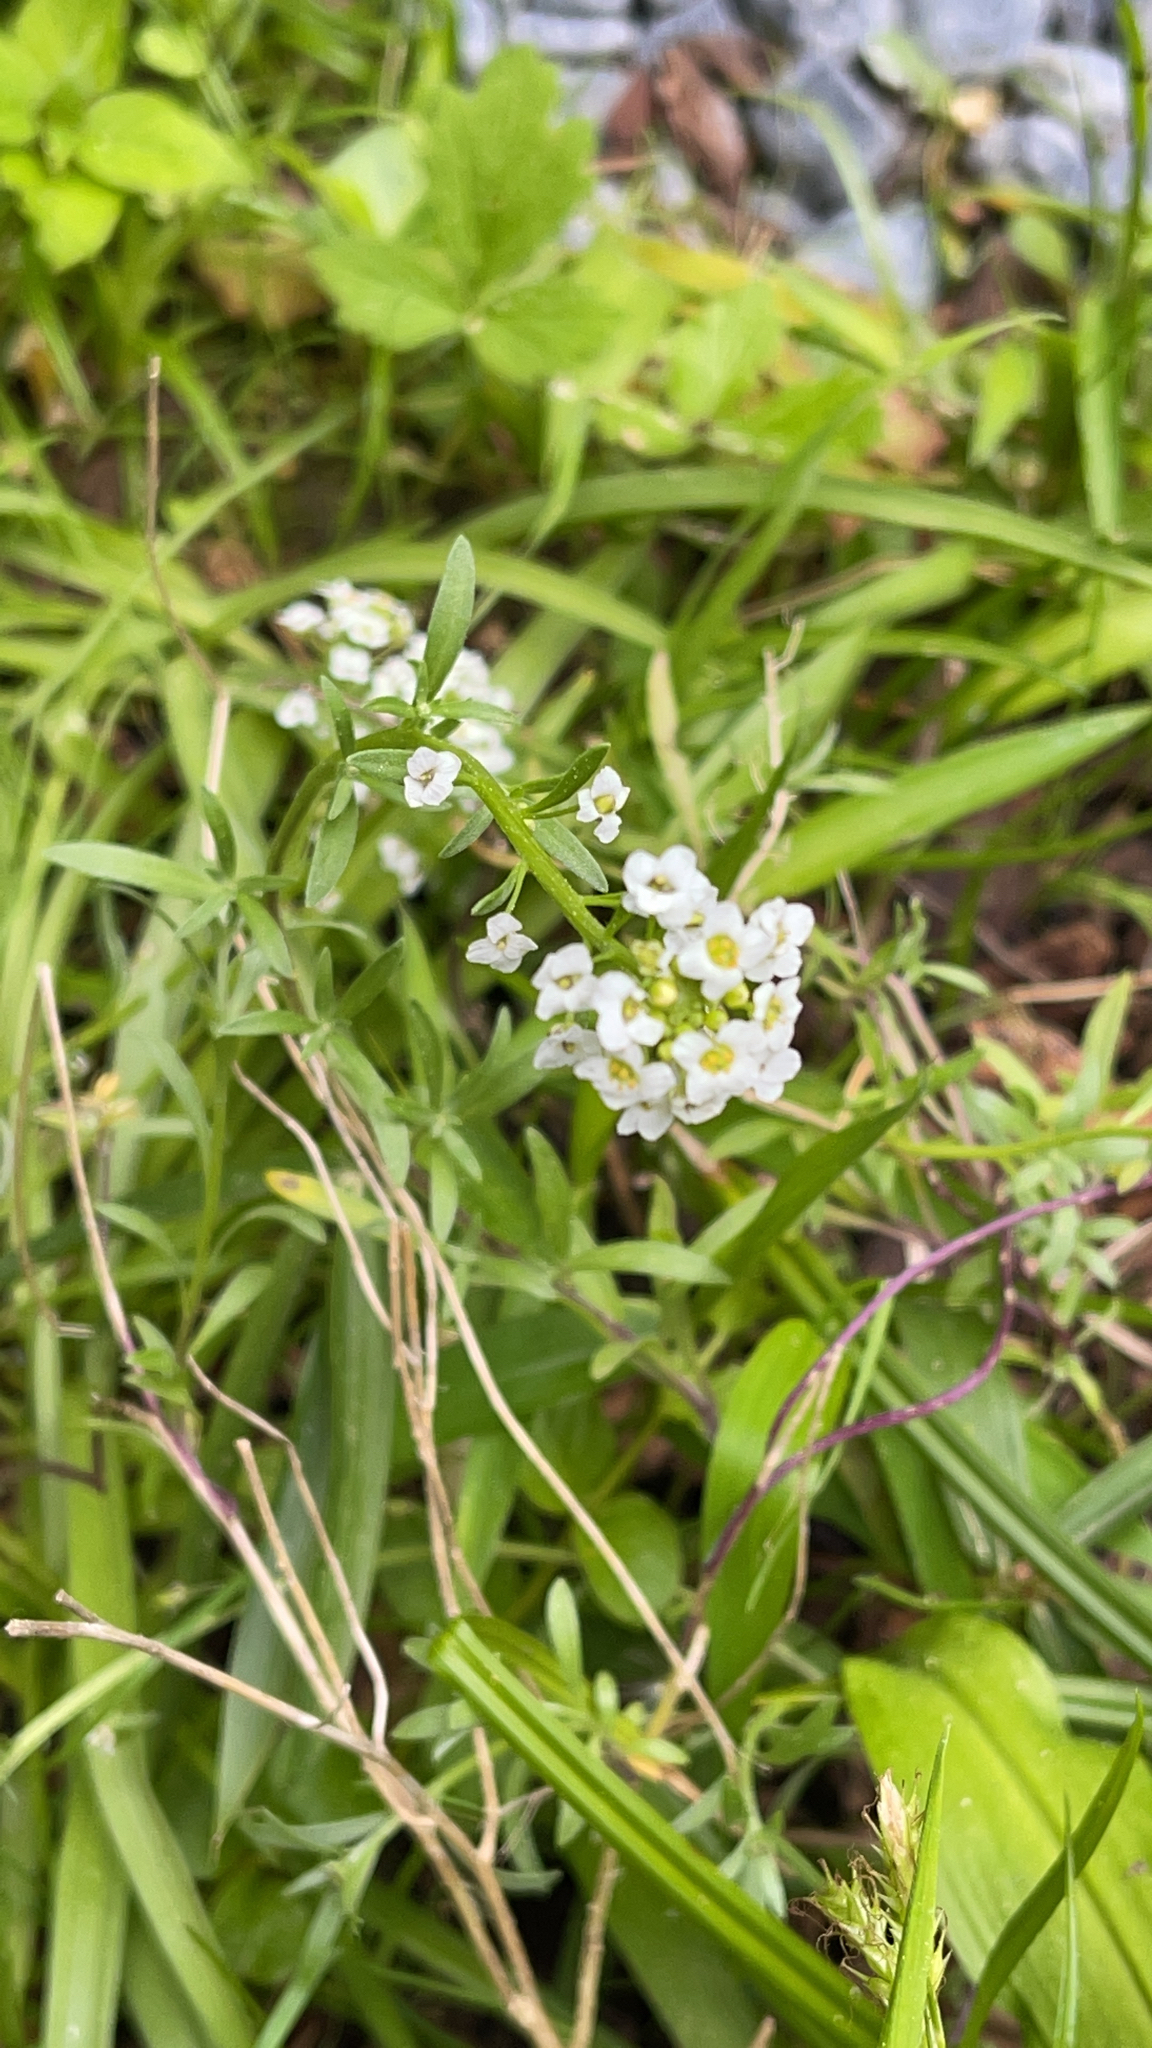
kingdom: Plantae
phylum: Tracheophyta
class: Magnoliopsida
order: Brassicales
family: Brassicaceae
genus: Lobularia
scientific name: Lobularia maritima
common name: Sweet alison
